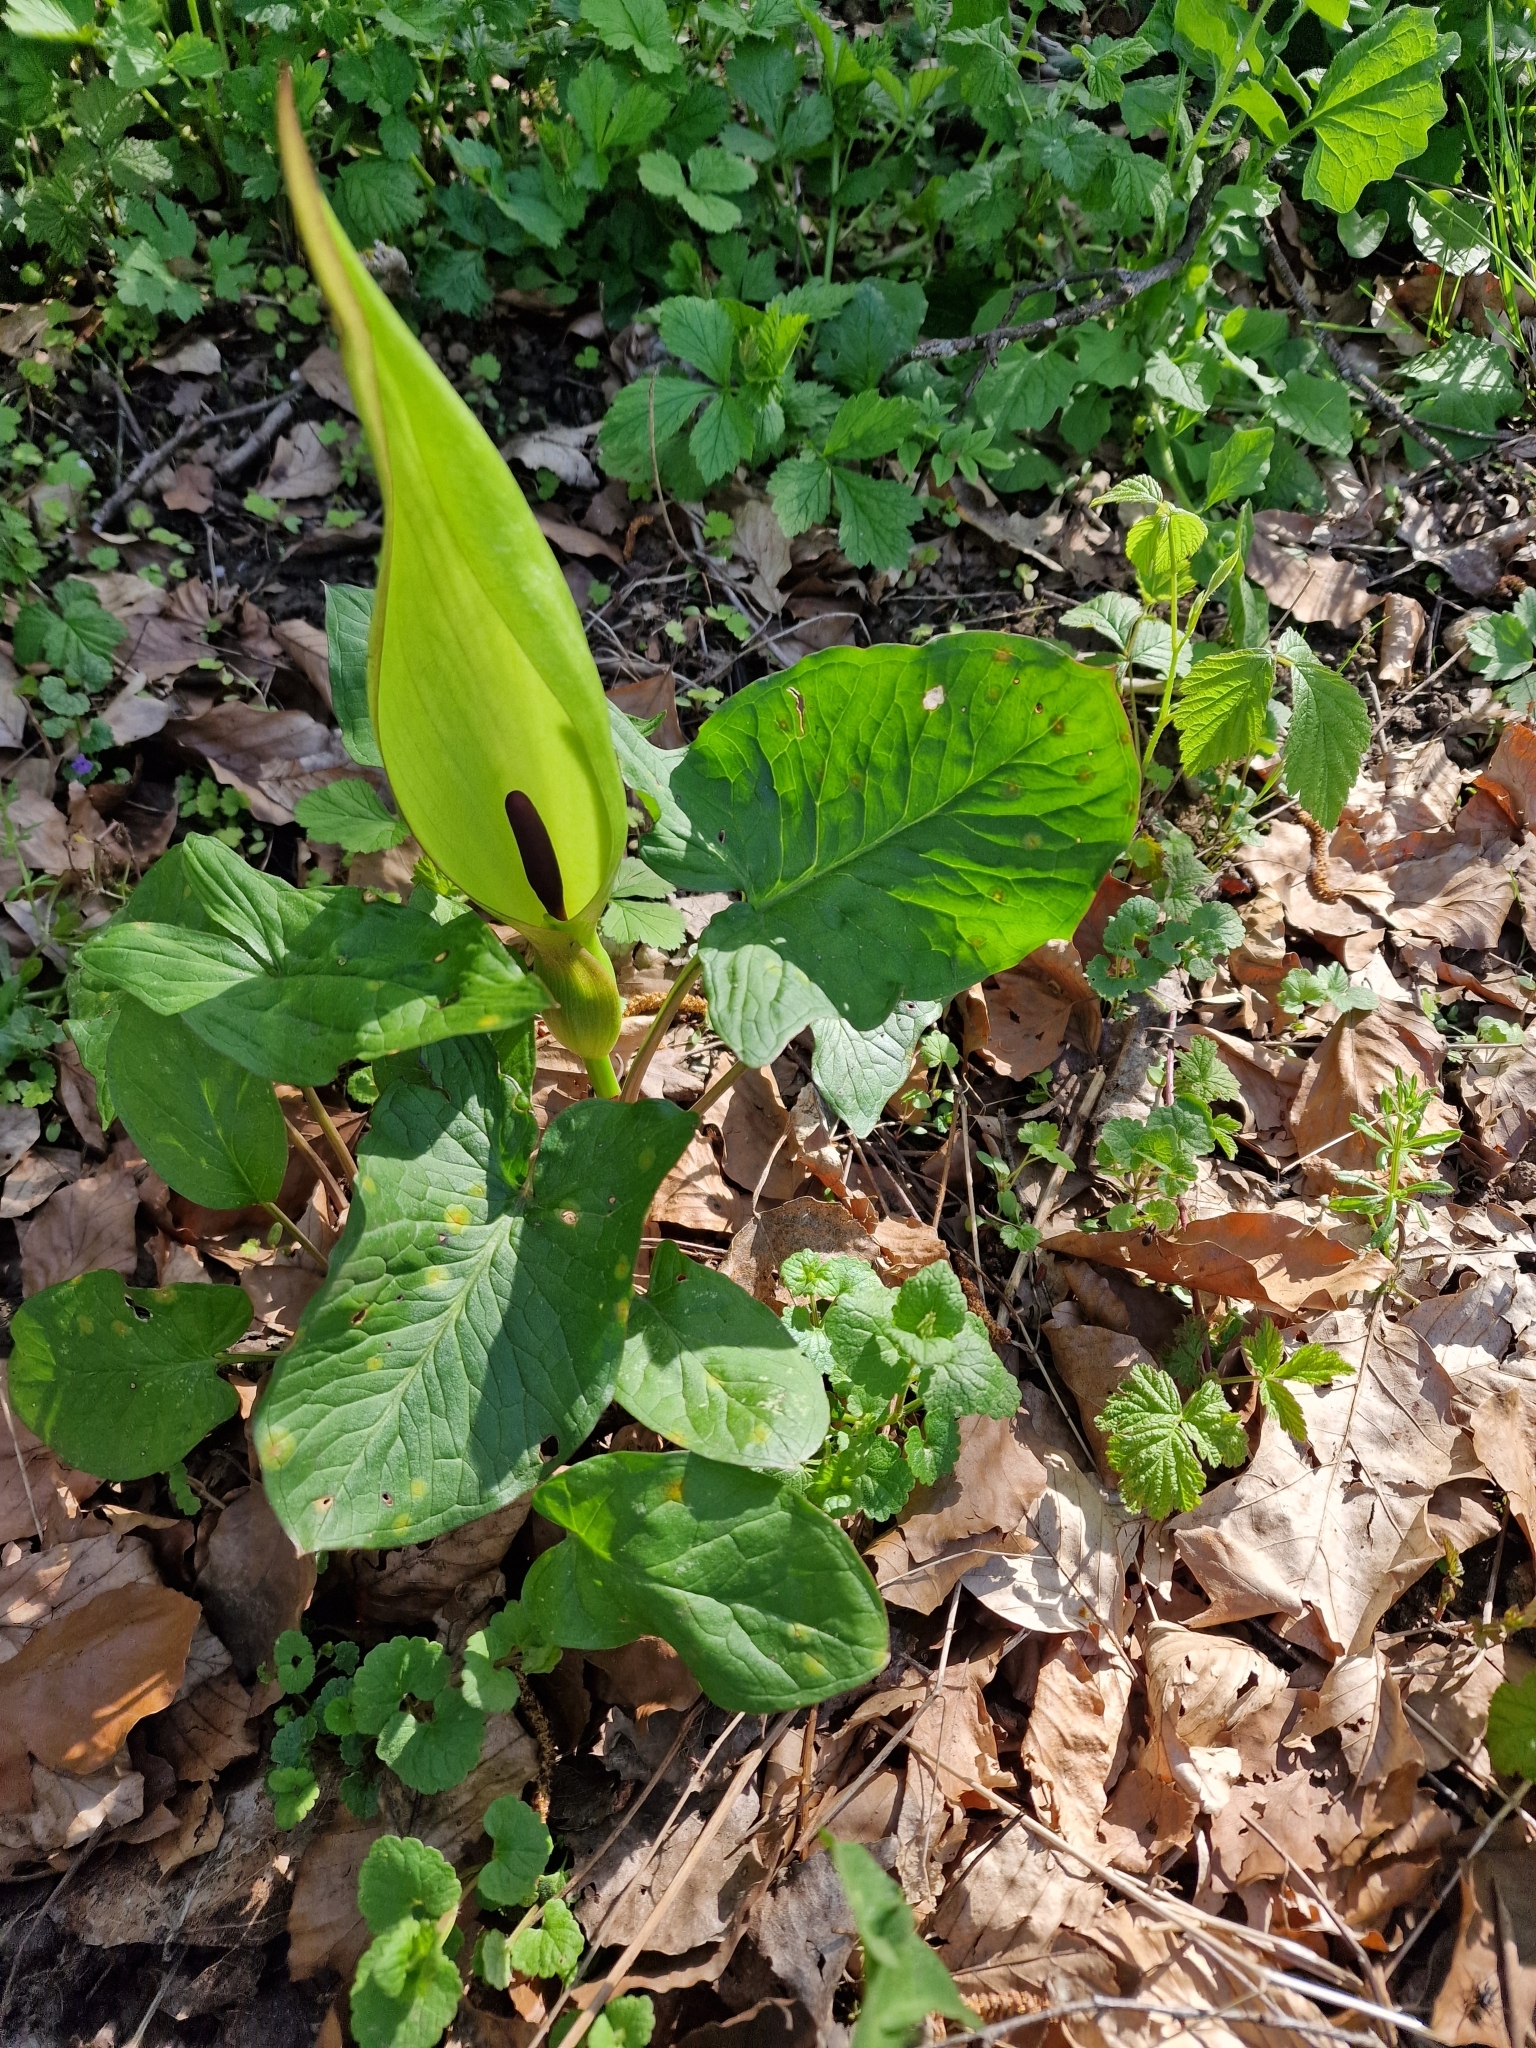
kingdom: Plantae
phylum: Tracheophyta
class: Liliopsida
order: Alismatales
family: Araceae
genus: Arum
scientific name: Arum maculatum
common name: Lords-and-ladies
